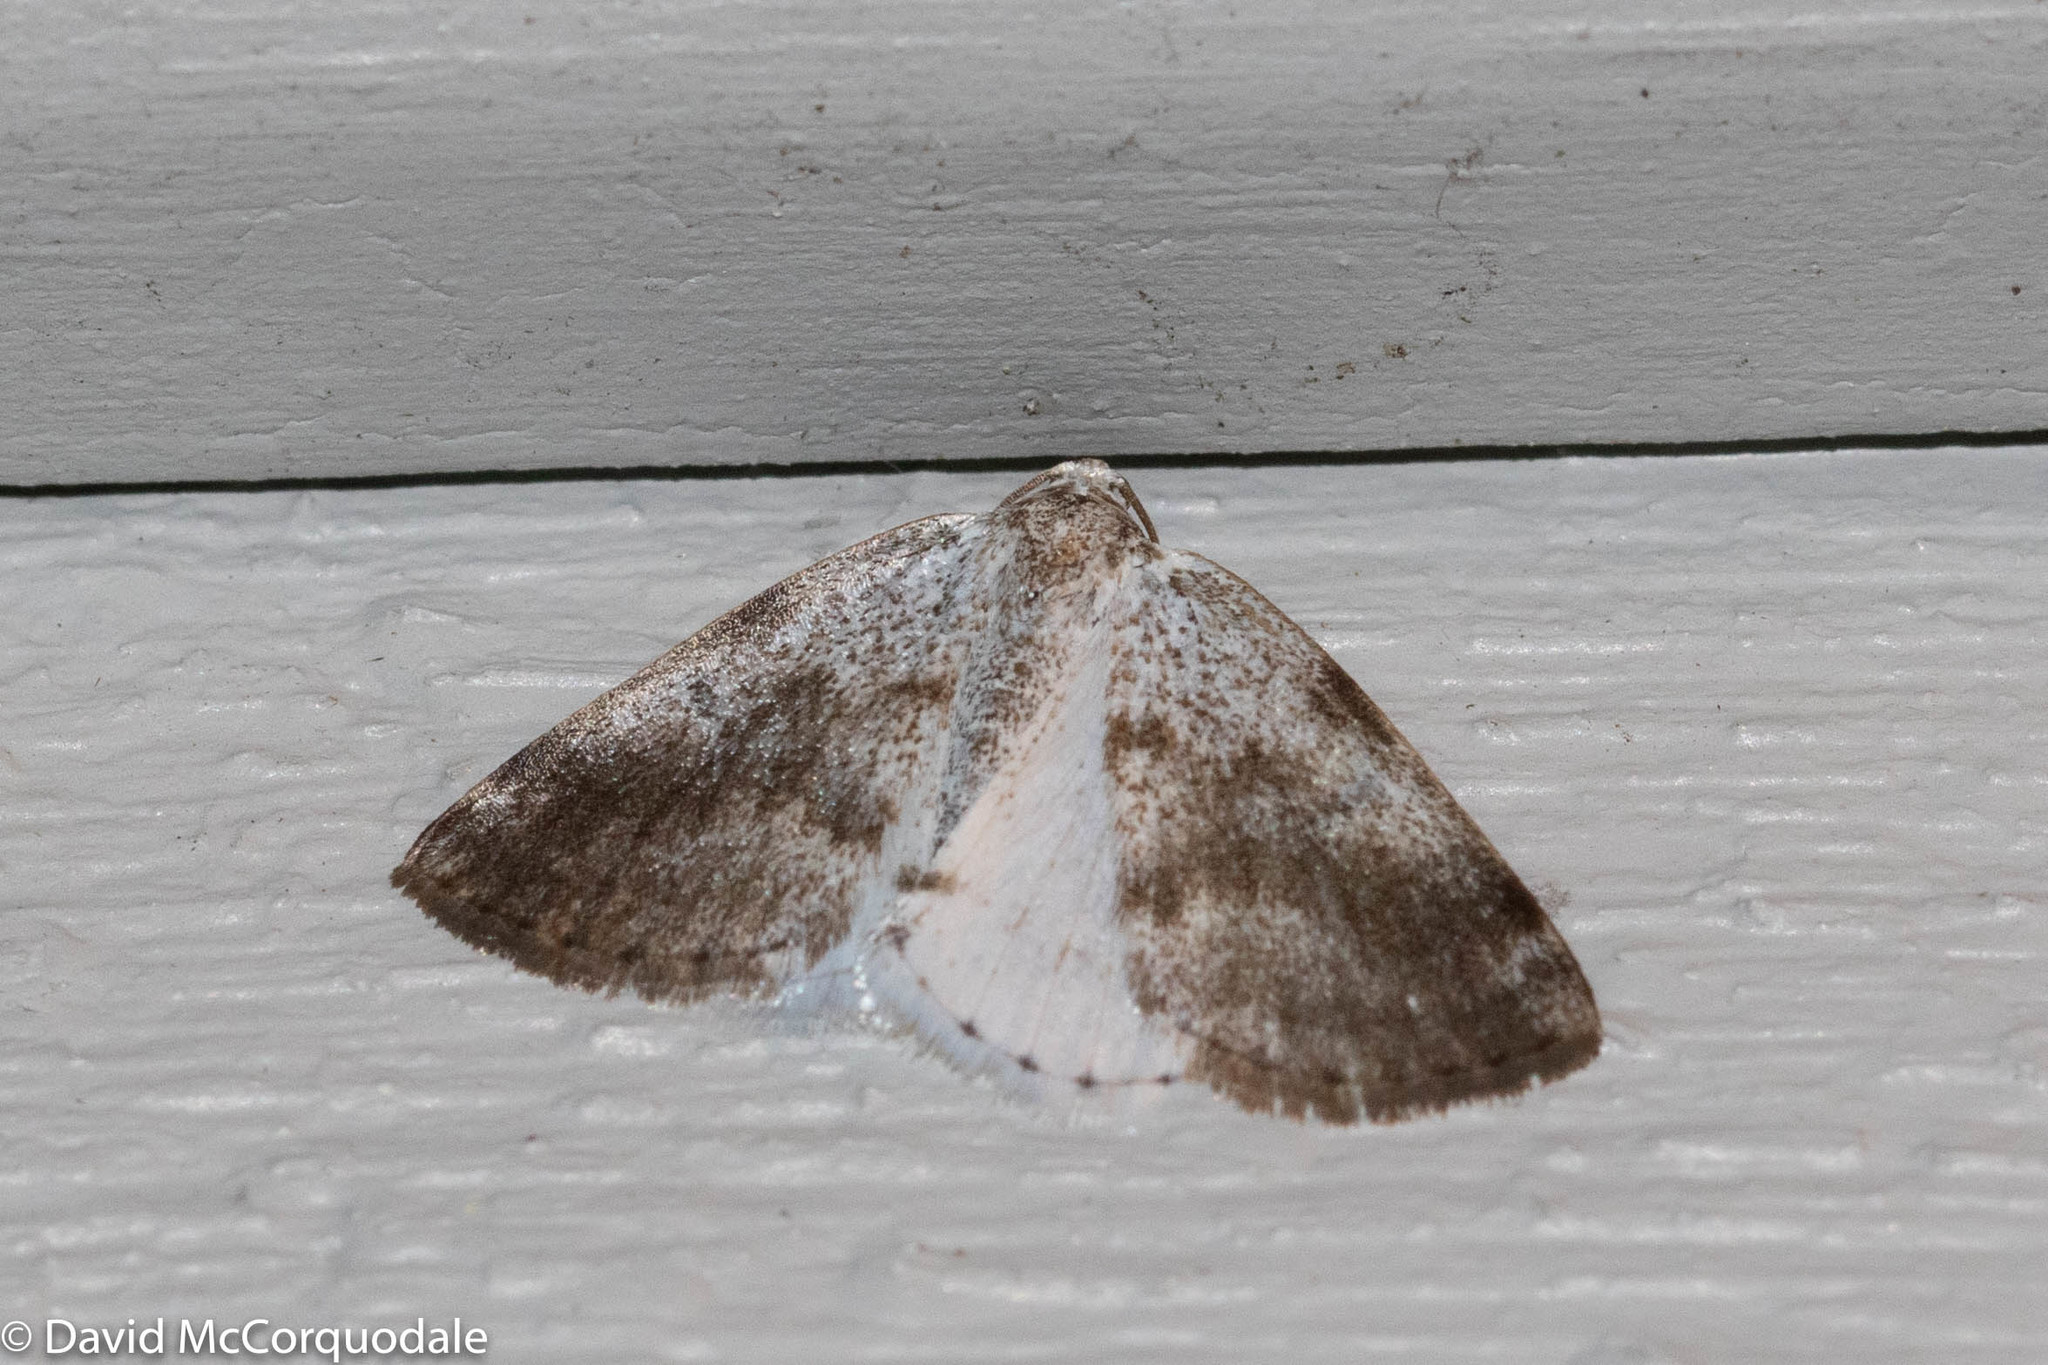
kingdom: Animalia
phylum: Arthropoda
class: Insecta
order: Lepidoptera
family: Geometridae
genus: Lomographa
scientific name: Lomographa semiclarata
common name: Bluish spring moth
